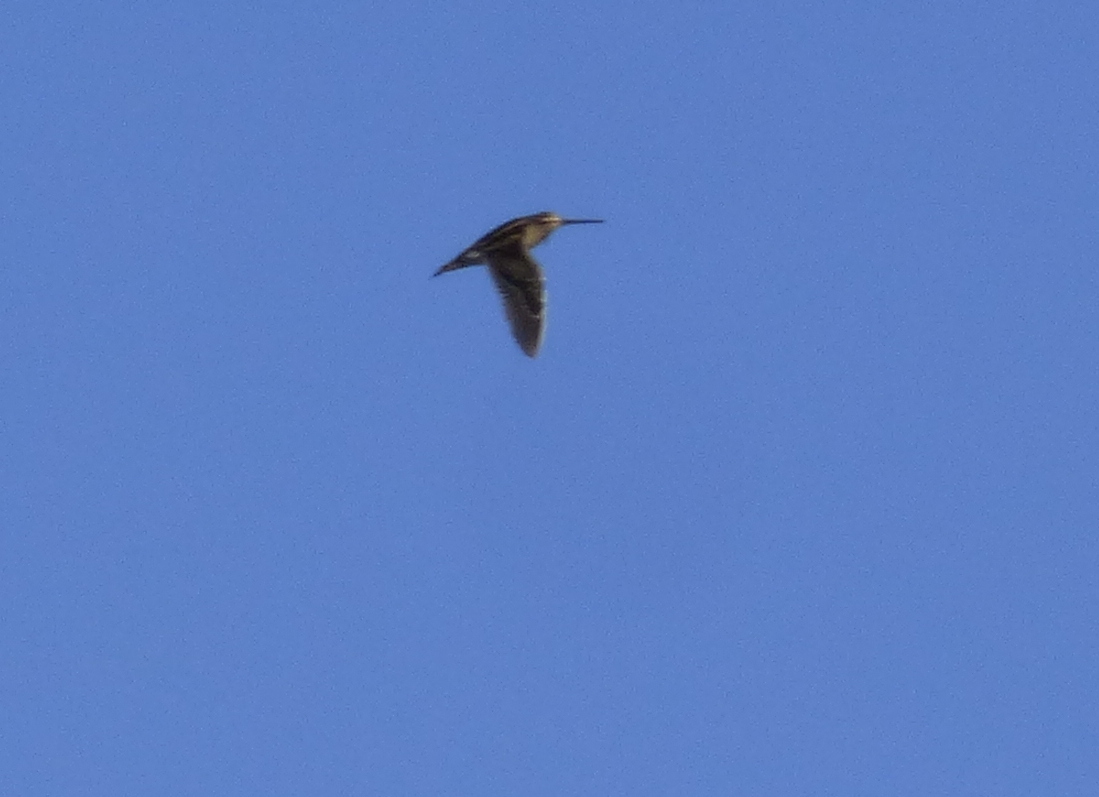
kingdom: Animalia
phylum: Chordata
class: Aves
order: Charadriiformes
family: Scolopacidae
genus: Gallinago
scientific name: Gallinago paraguaiae
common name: South american snipe
